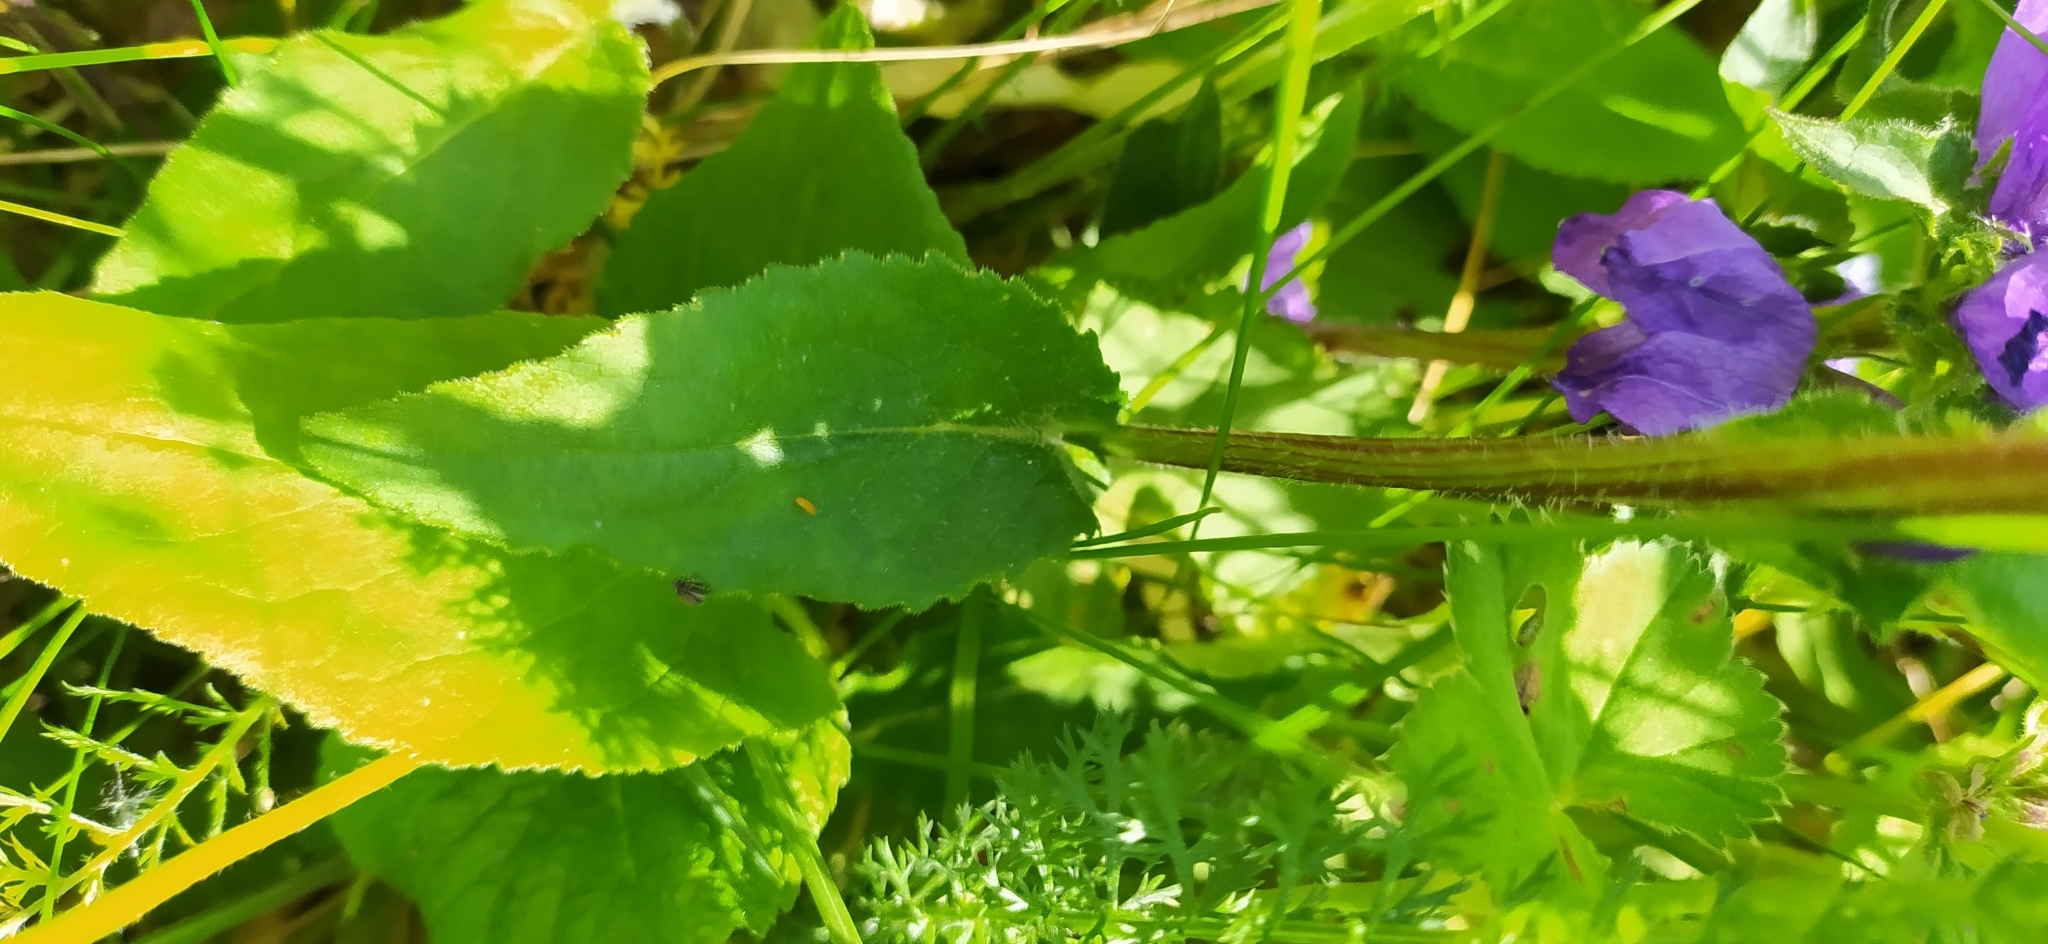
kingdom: Plantae
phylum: Tracheophyta
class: Magnoliopsida
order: Asterales
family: Campanulaceae
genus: Campanula
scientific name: Campanula glomerata
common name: Clustered bellflower
